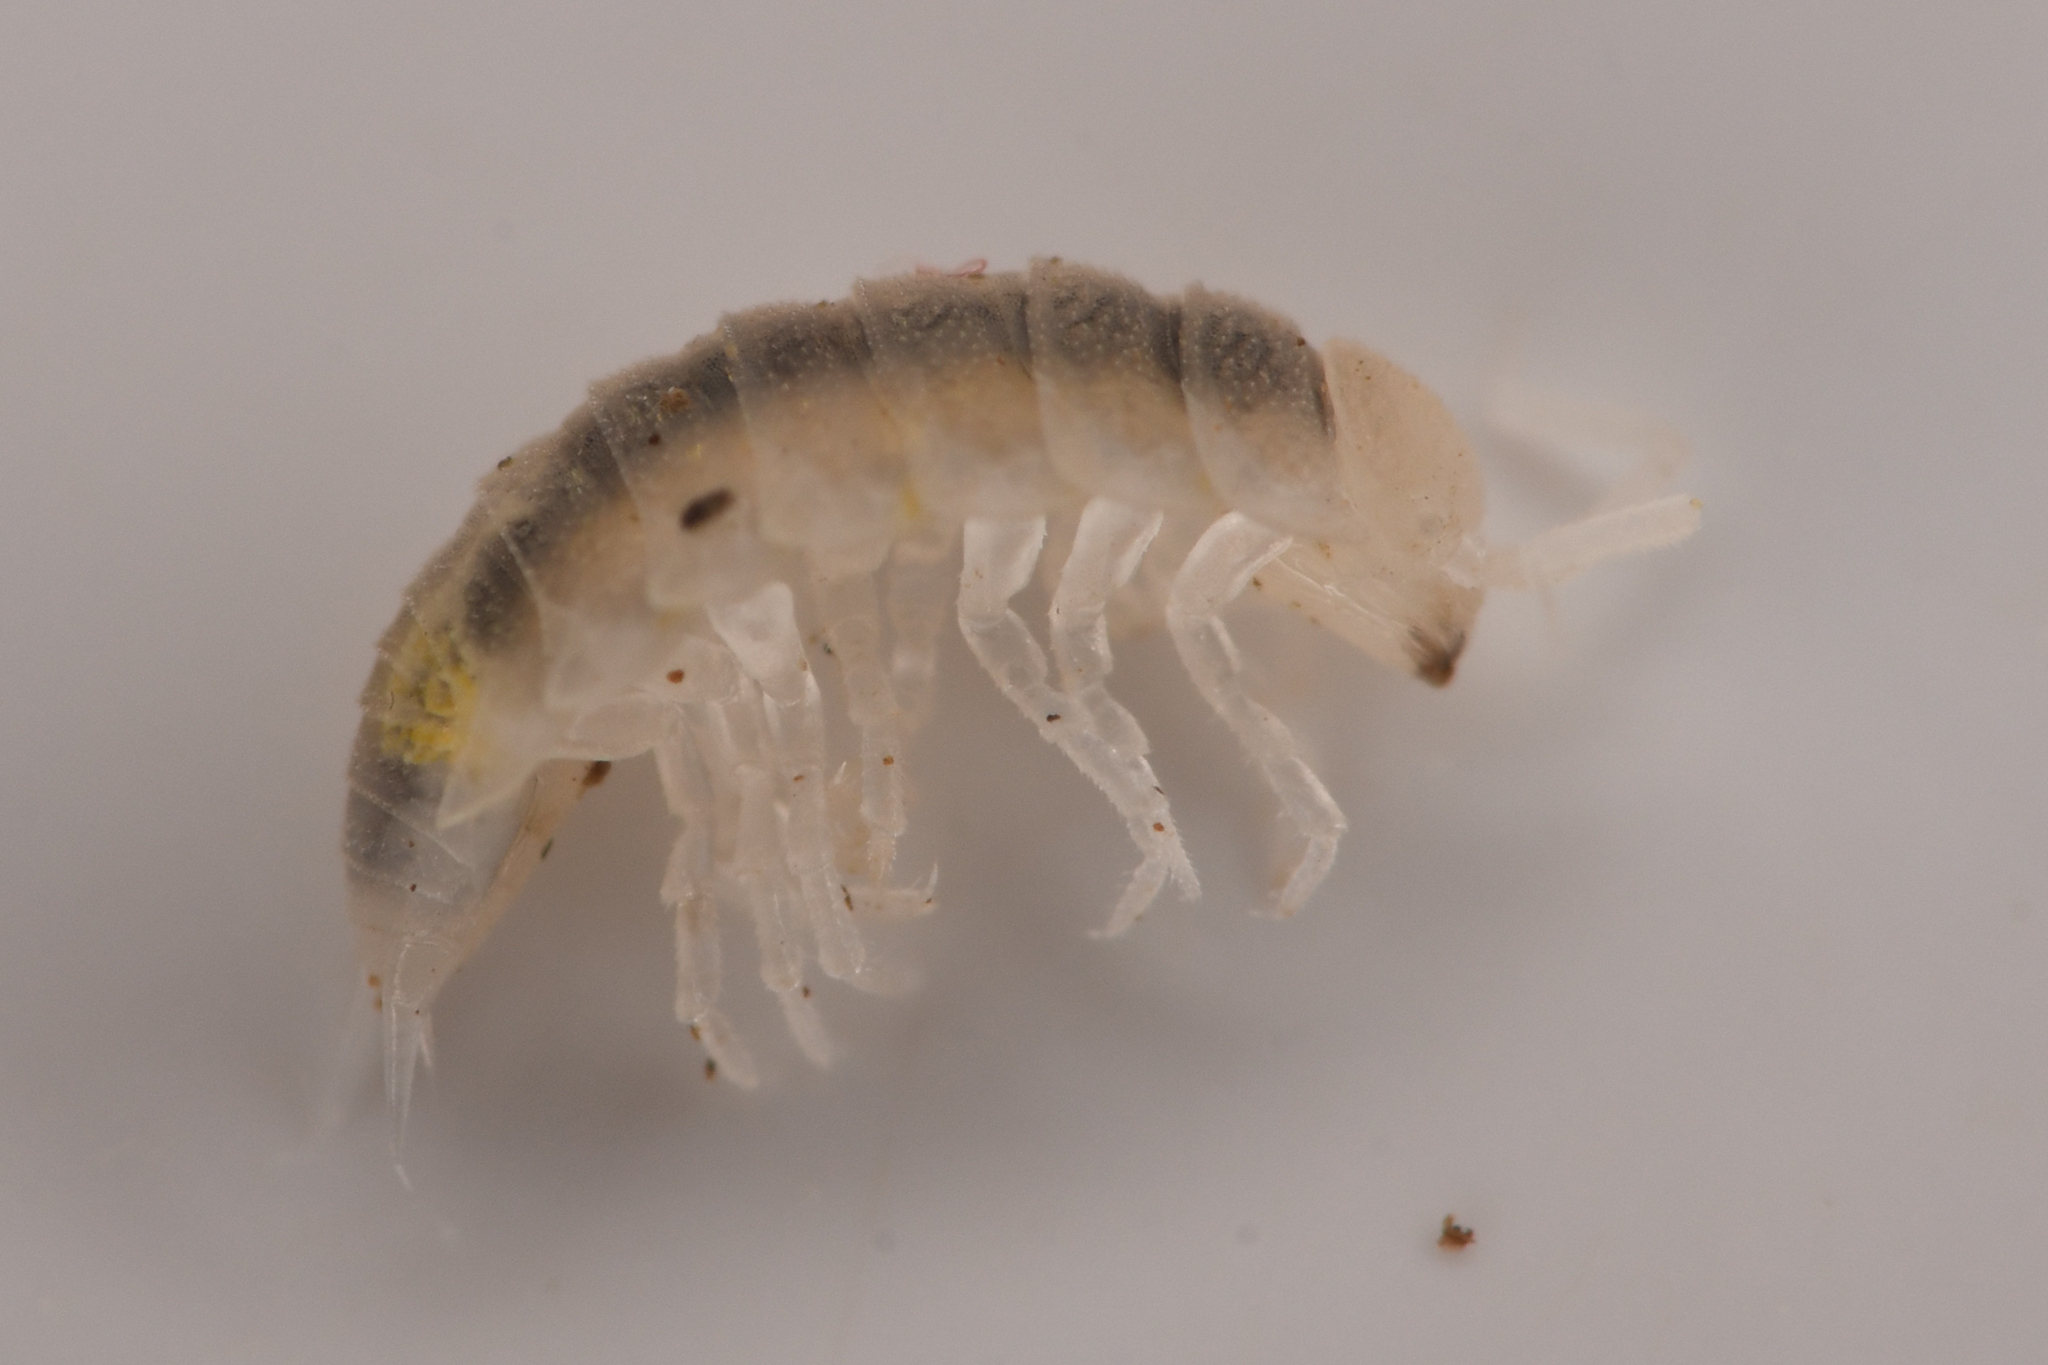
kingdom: Animalia
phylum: Arthropoda
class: Malacostraca
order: Isopoda
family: Trichoniscidae
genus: Brackenridgia
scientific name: Brackenridgia heroldi
